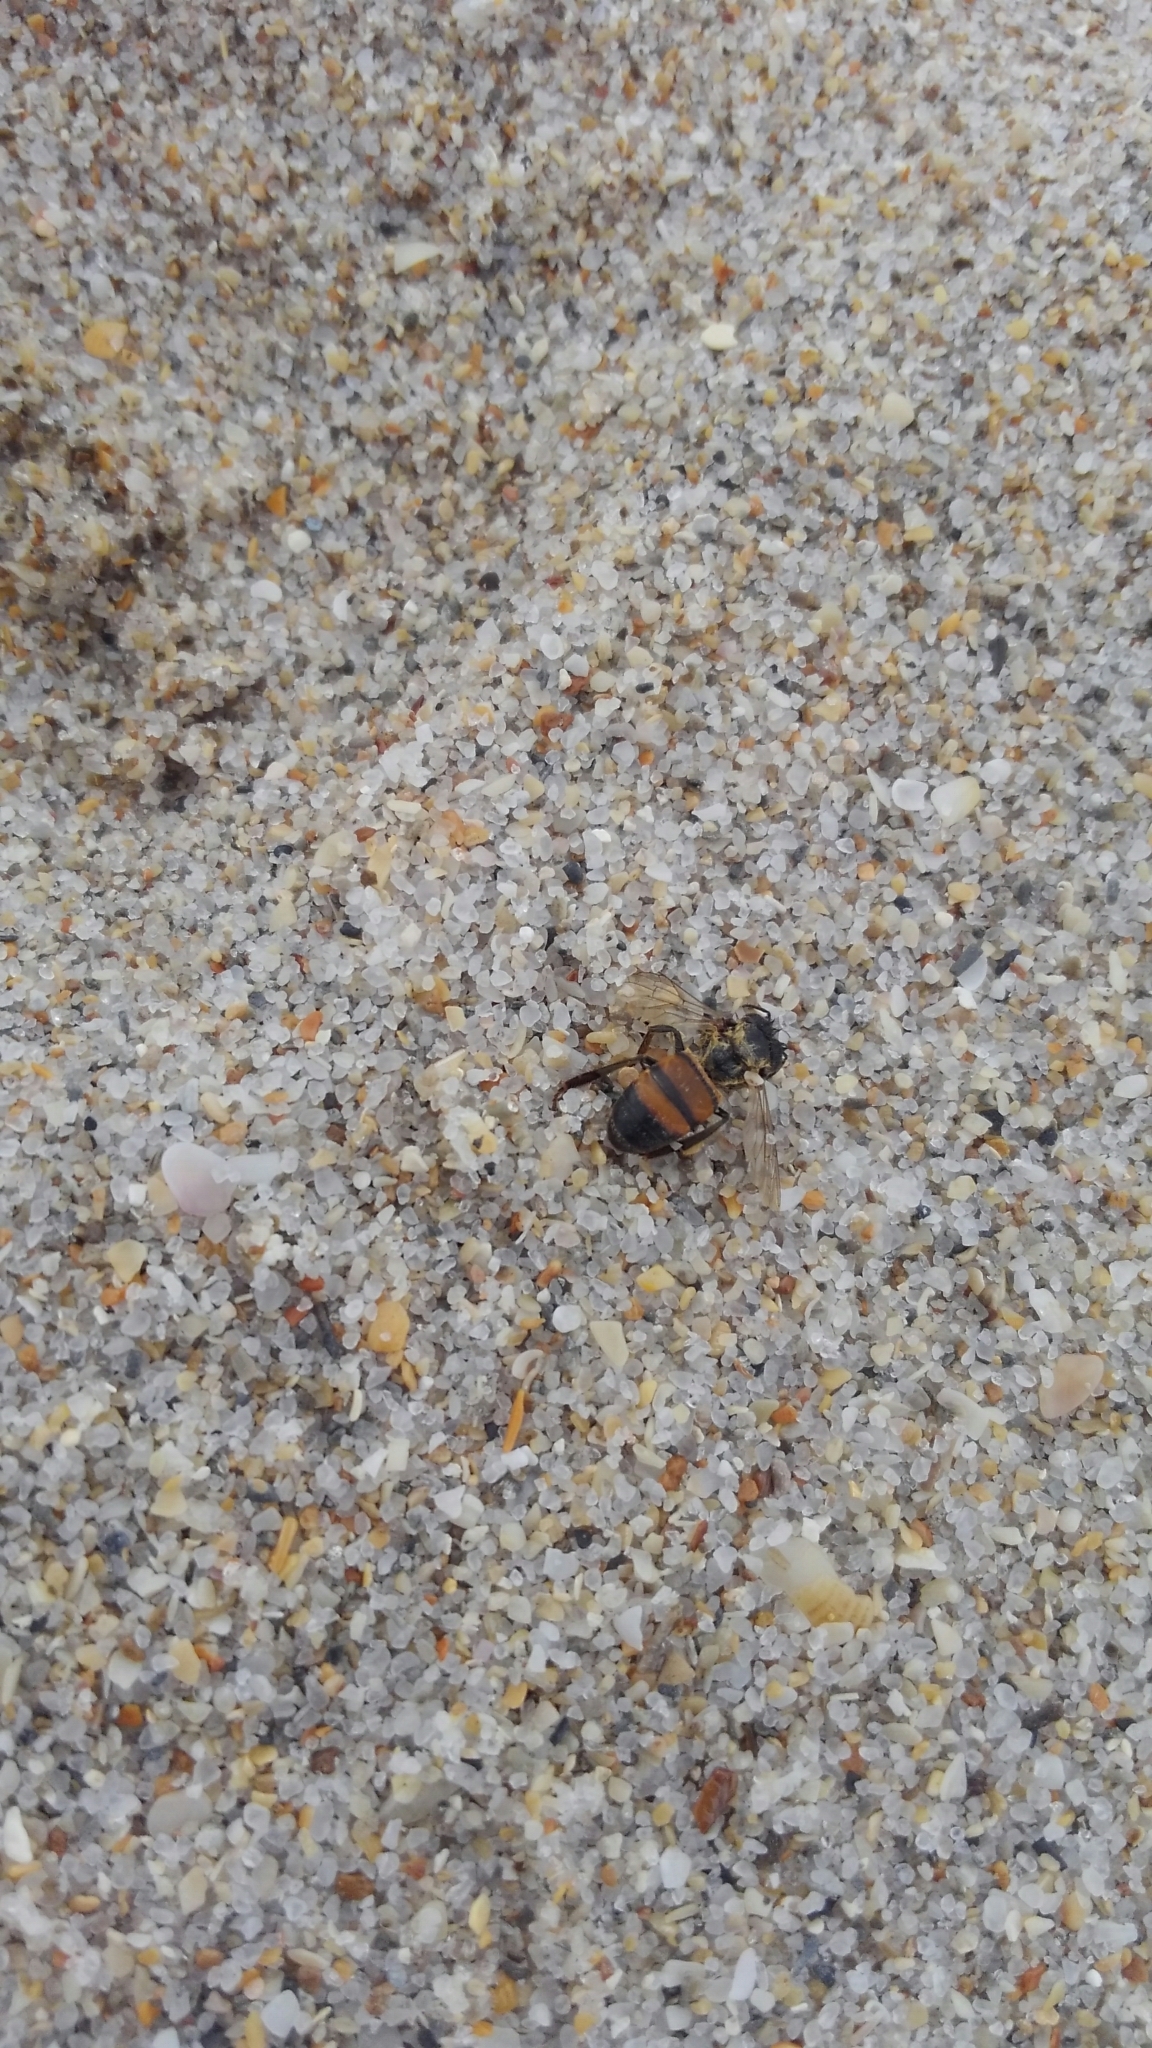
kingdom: Animalia
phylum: Arthropoda
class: Insecta
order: Hymenoptera
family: Apidae
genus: Apis
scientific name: Apis mellifera
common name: Honey bee
